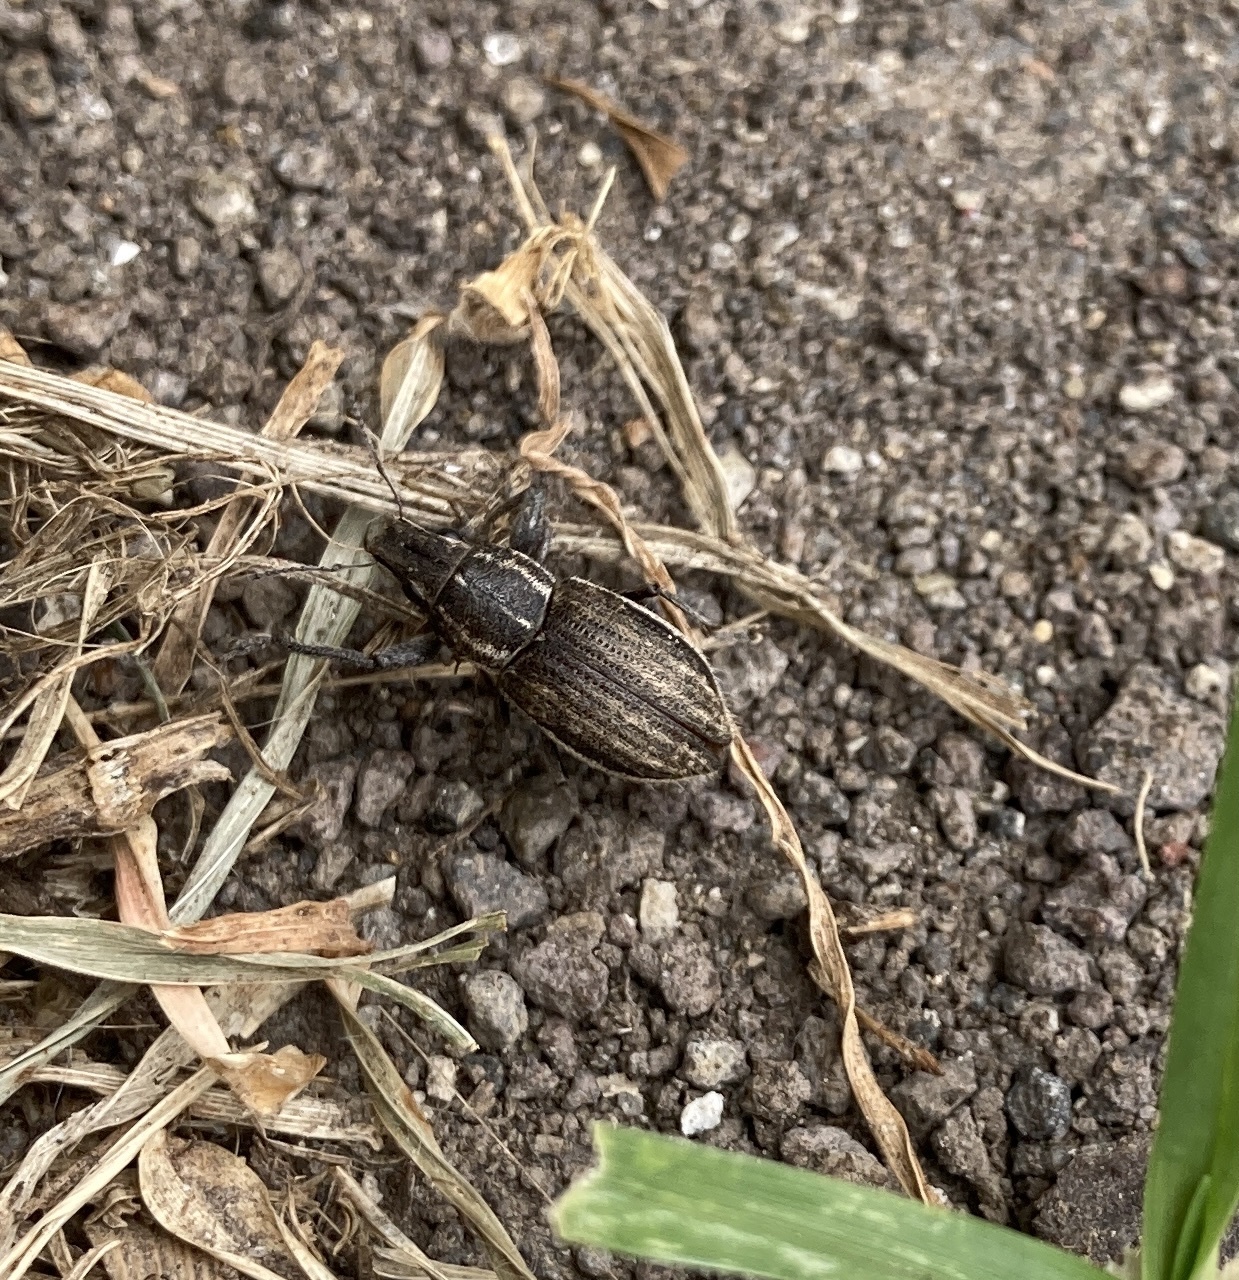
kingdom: Animalia
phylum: Arthropoda
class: Insecta
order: Coleoptera
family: Curculionidae
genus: Naupactus
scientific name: Naupactus leucoloma
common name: Whitefringed beetle
